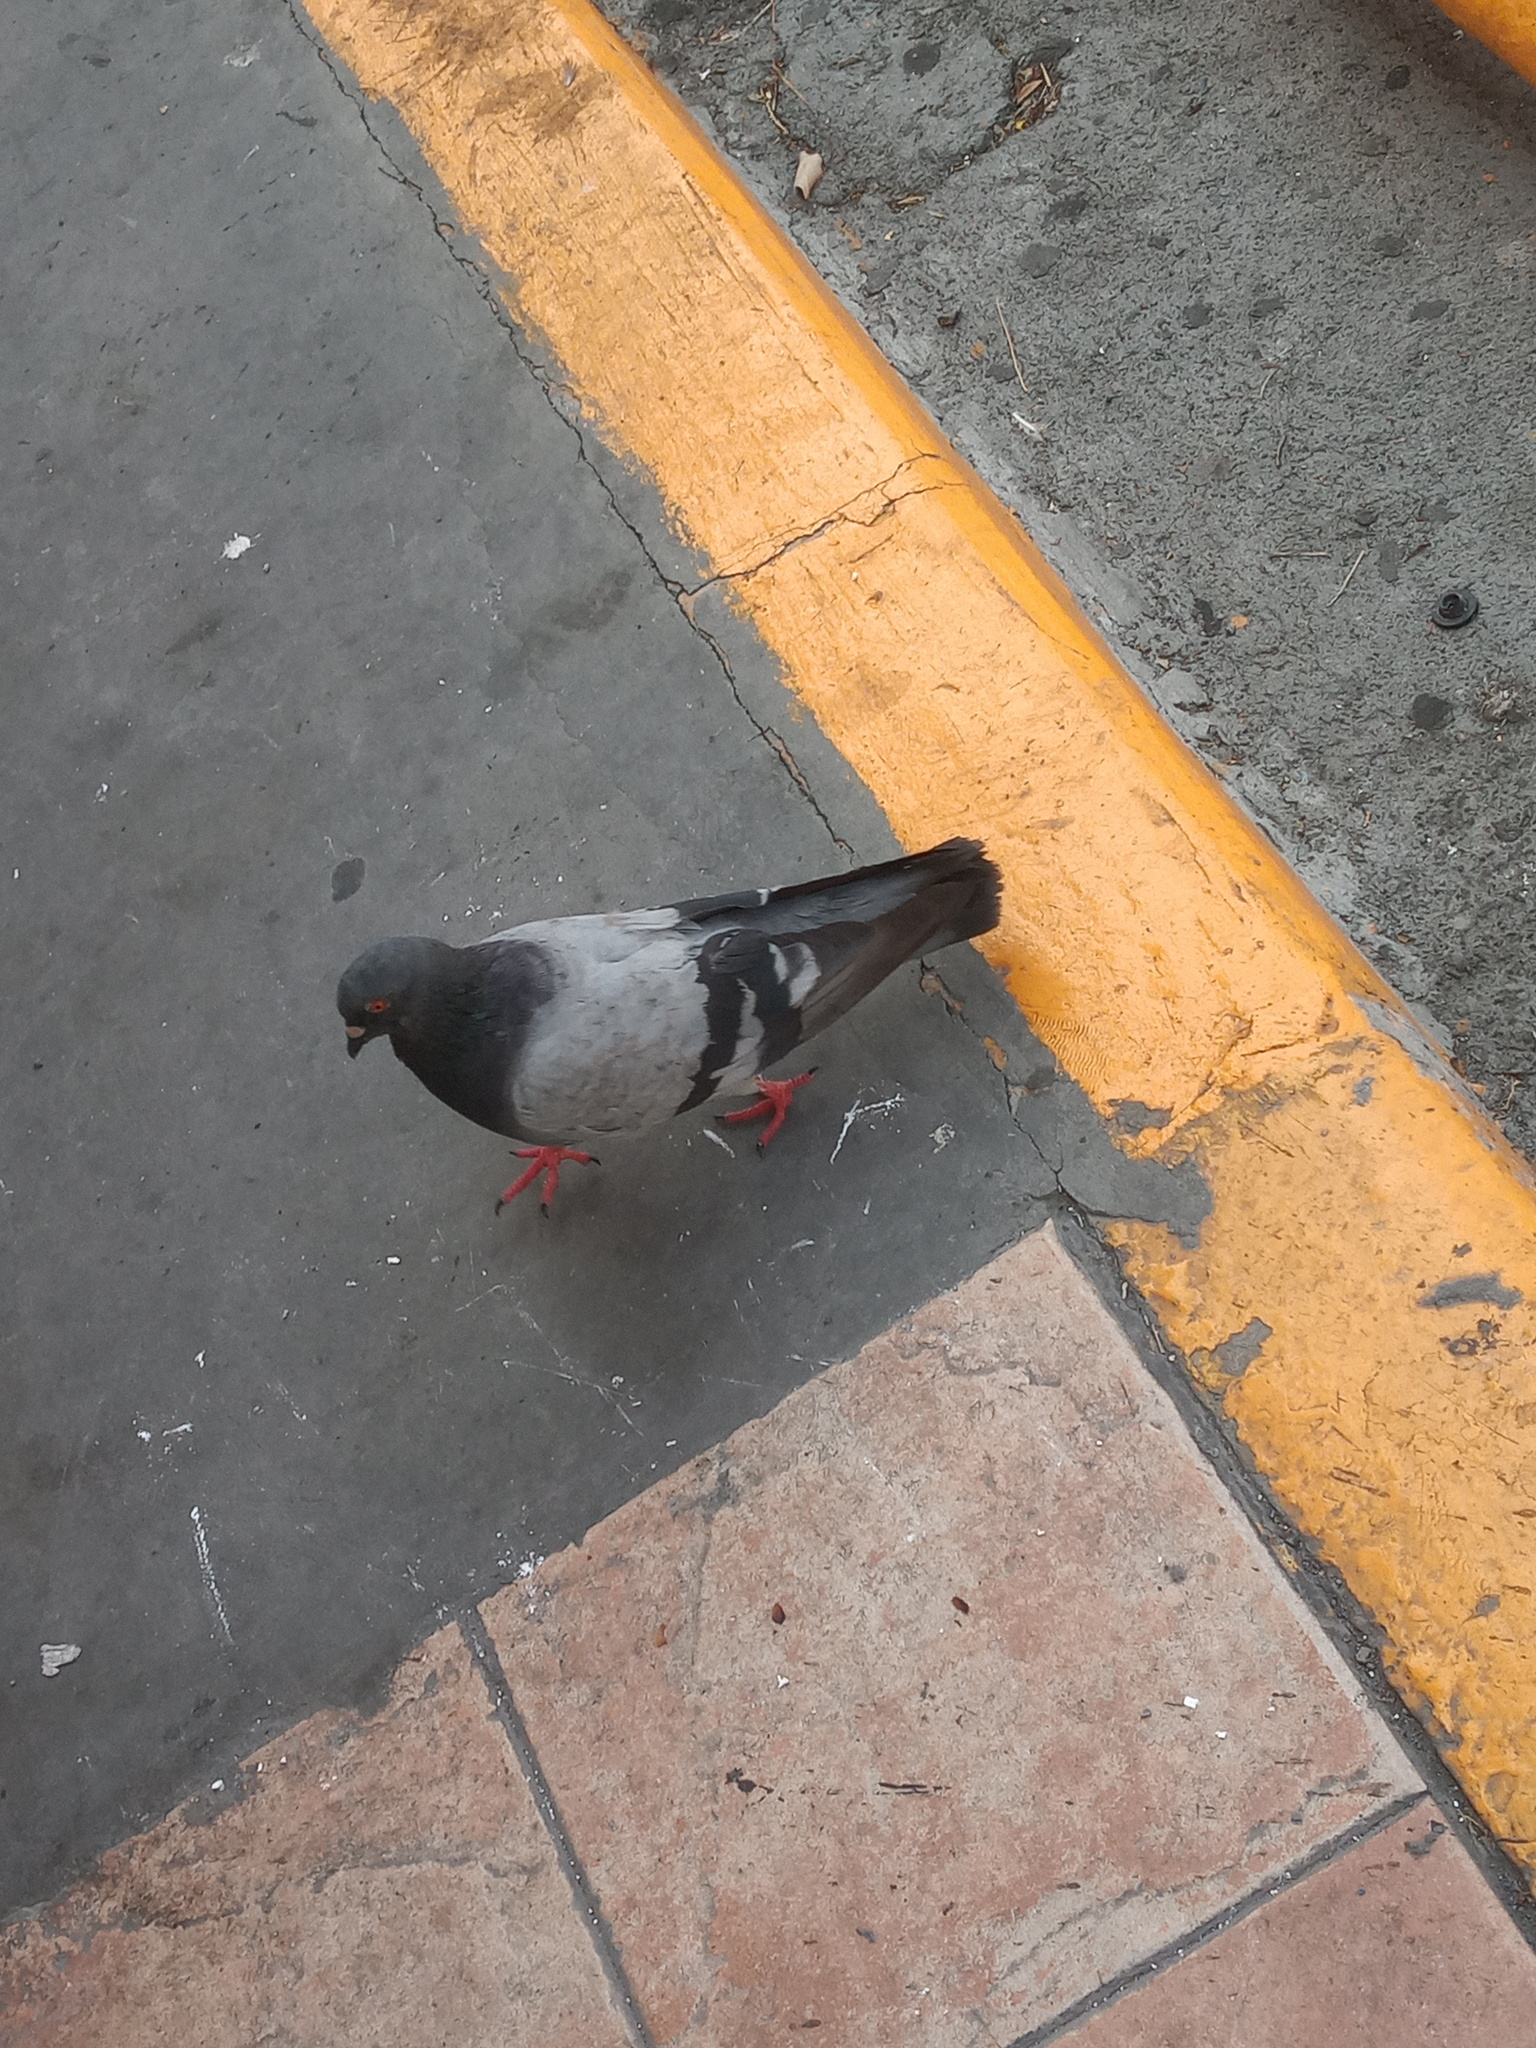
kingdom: Animalia
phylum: Chordata
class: Aves
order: Columbiformes
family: Columbidae
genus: Columba
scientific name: Columba livia
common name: Rock pigeon
